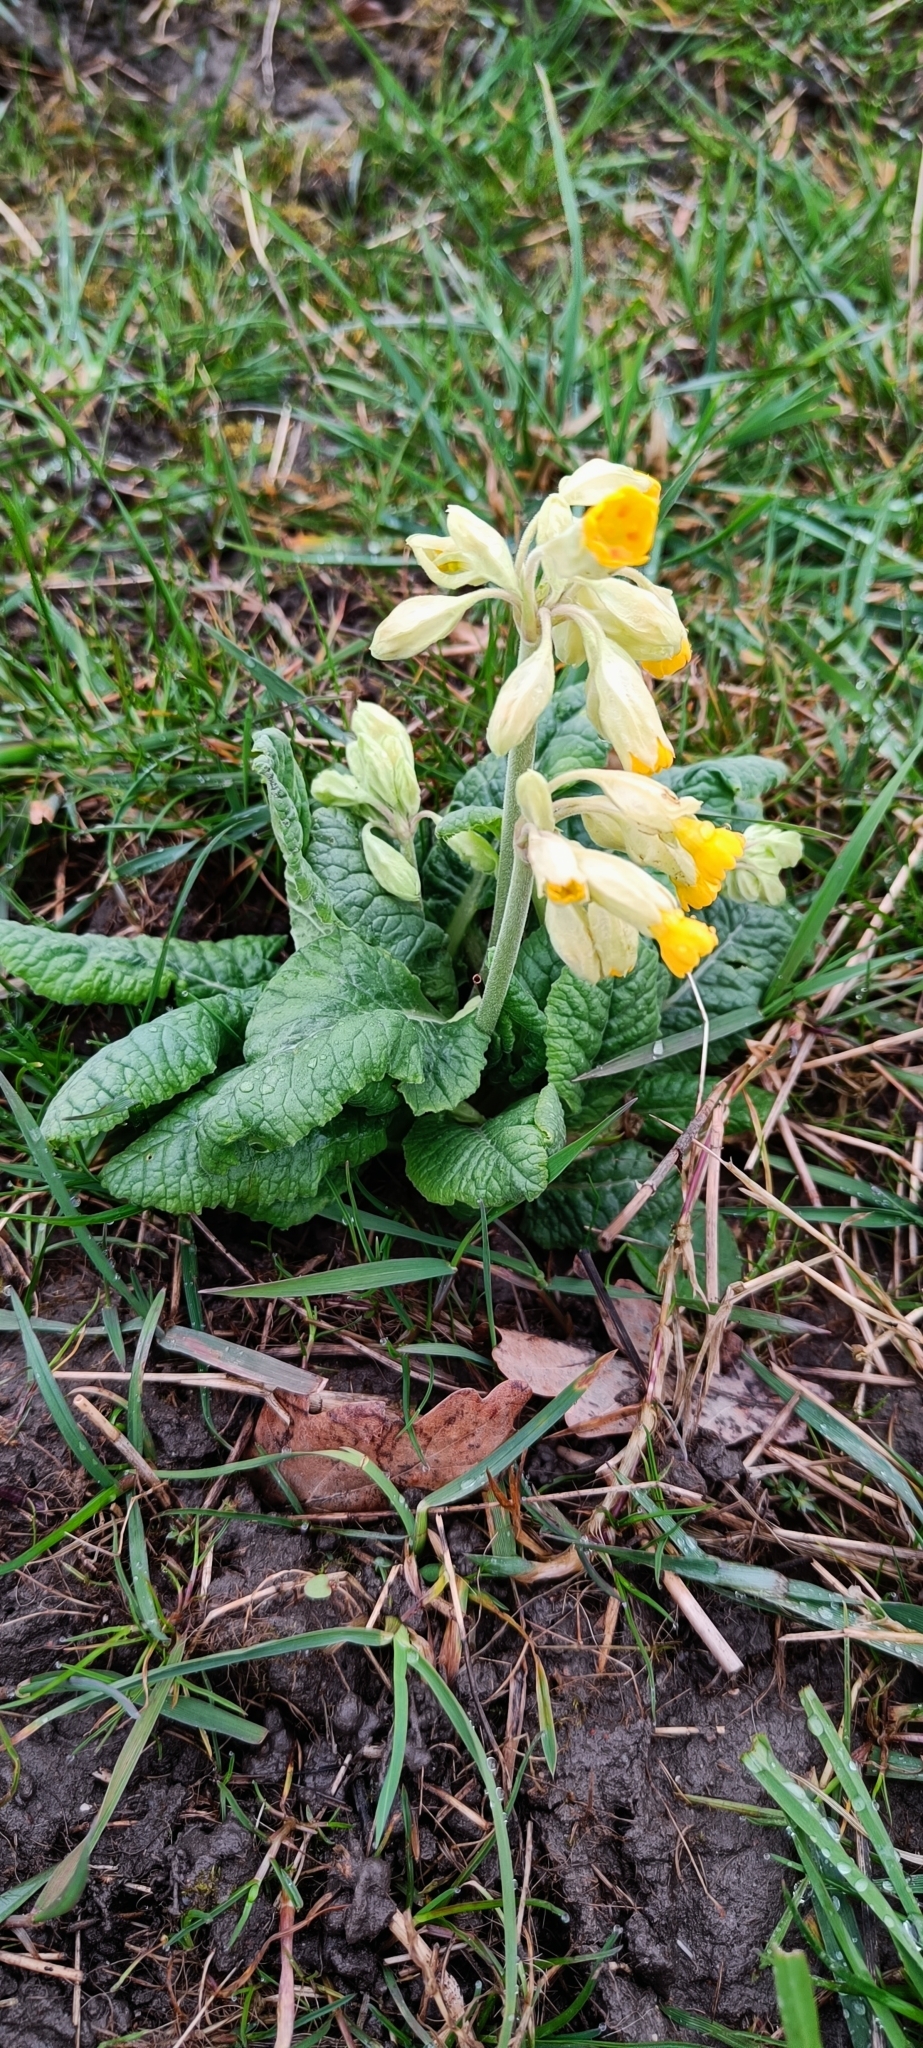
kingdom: Plantae
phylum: Tracheophyta
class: Magnoliopsida
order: Ericales
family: Primulaceae
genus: Primula
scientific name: Primula veris
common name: Cowslip
